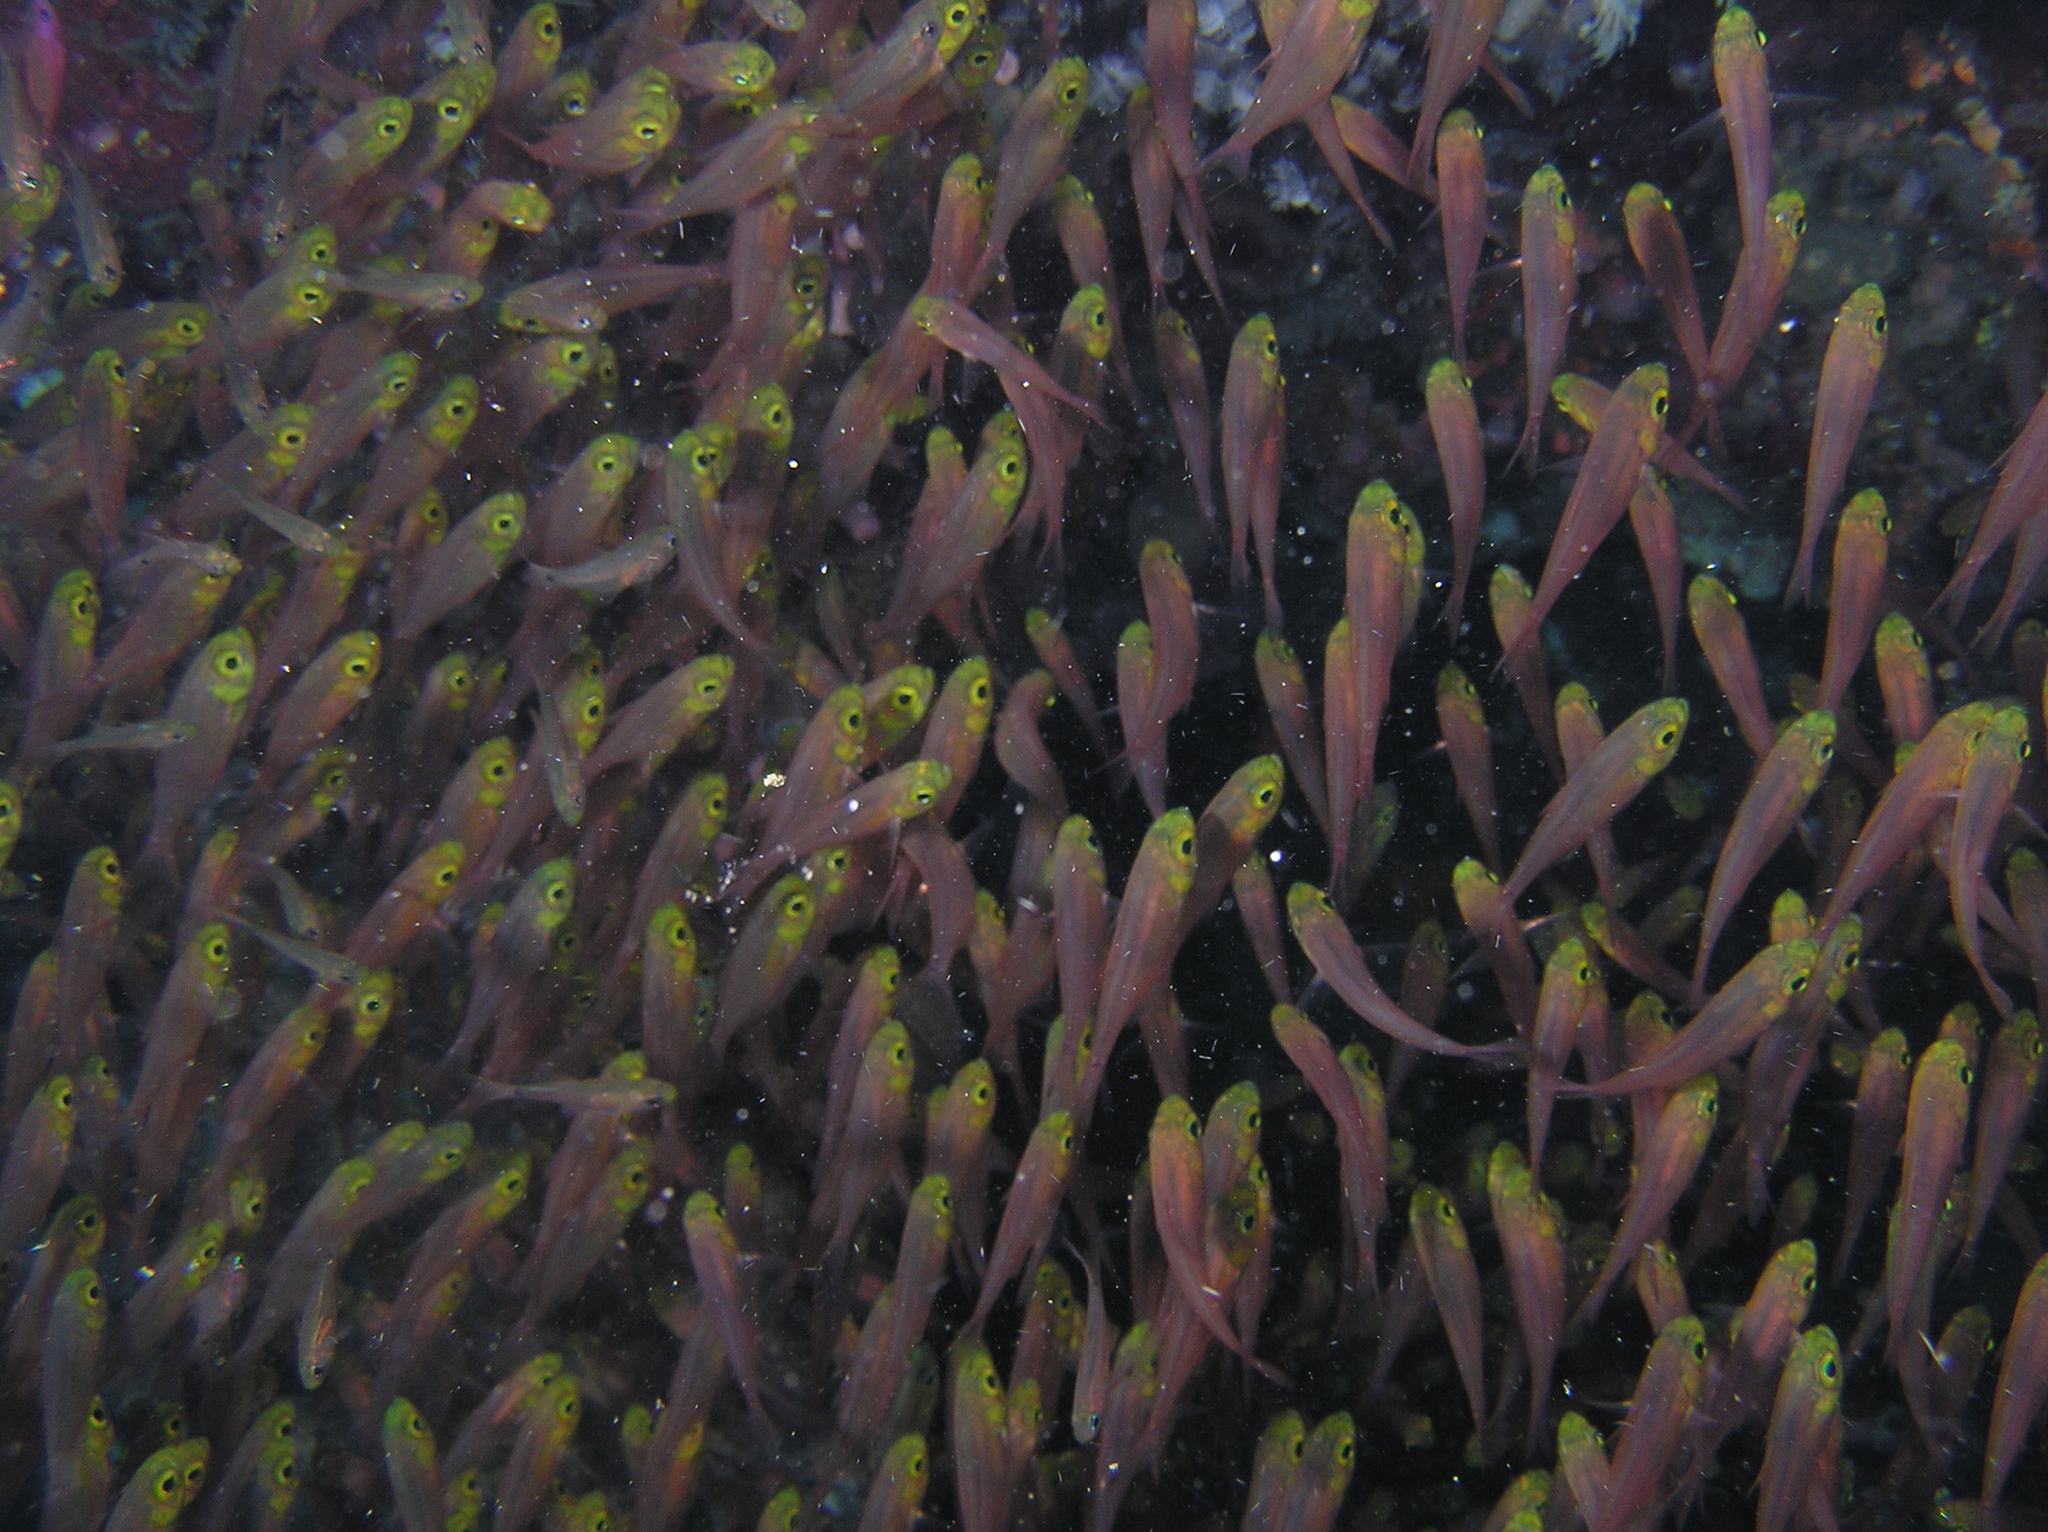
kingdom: Animalia
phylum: Chordata
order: Perciformes
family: Pempheridae
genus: Parapriacanthus
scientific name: Parapriacanthus ransonneti
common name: Pigmy sweeper
